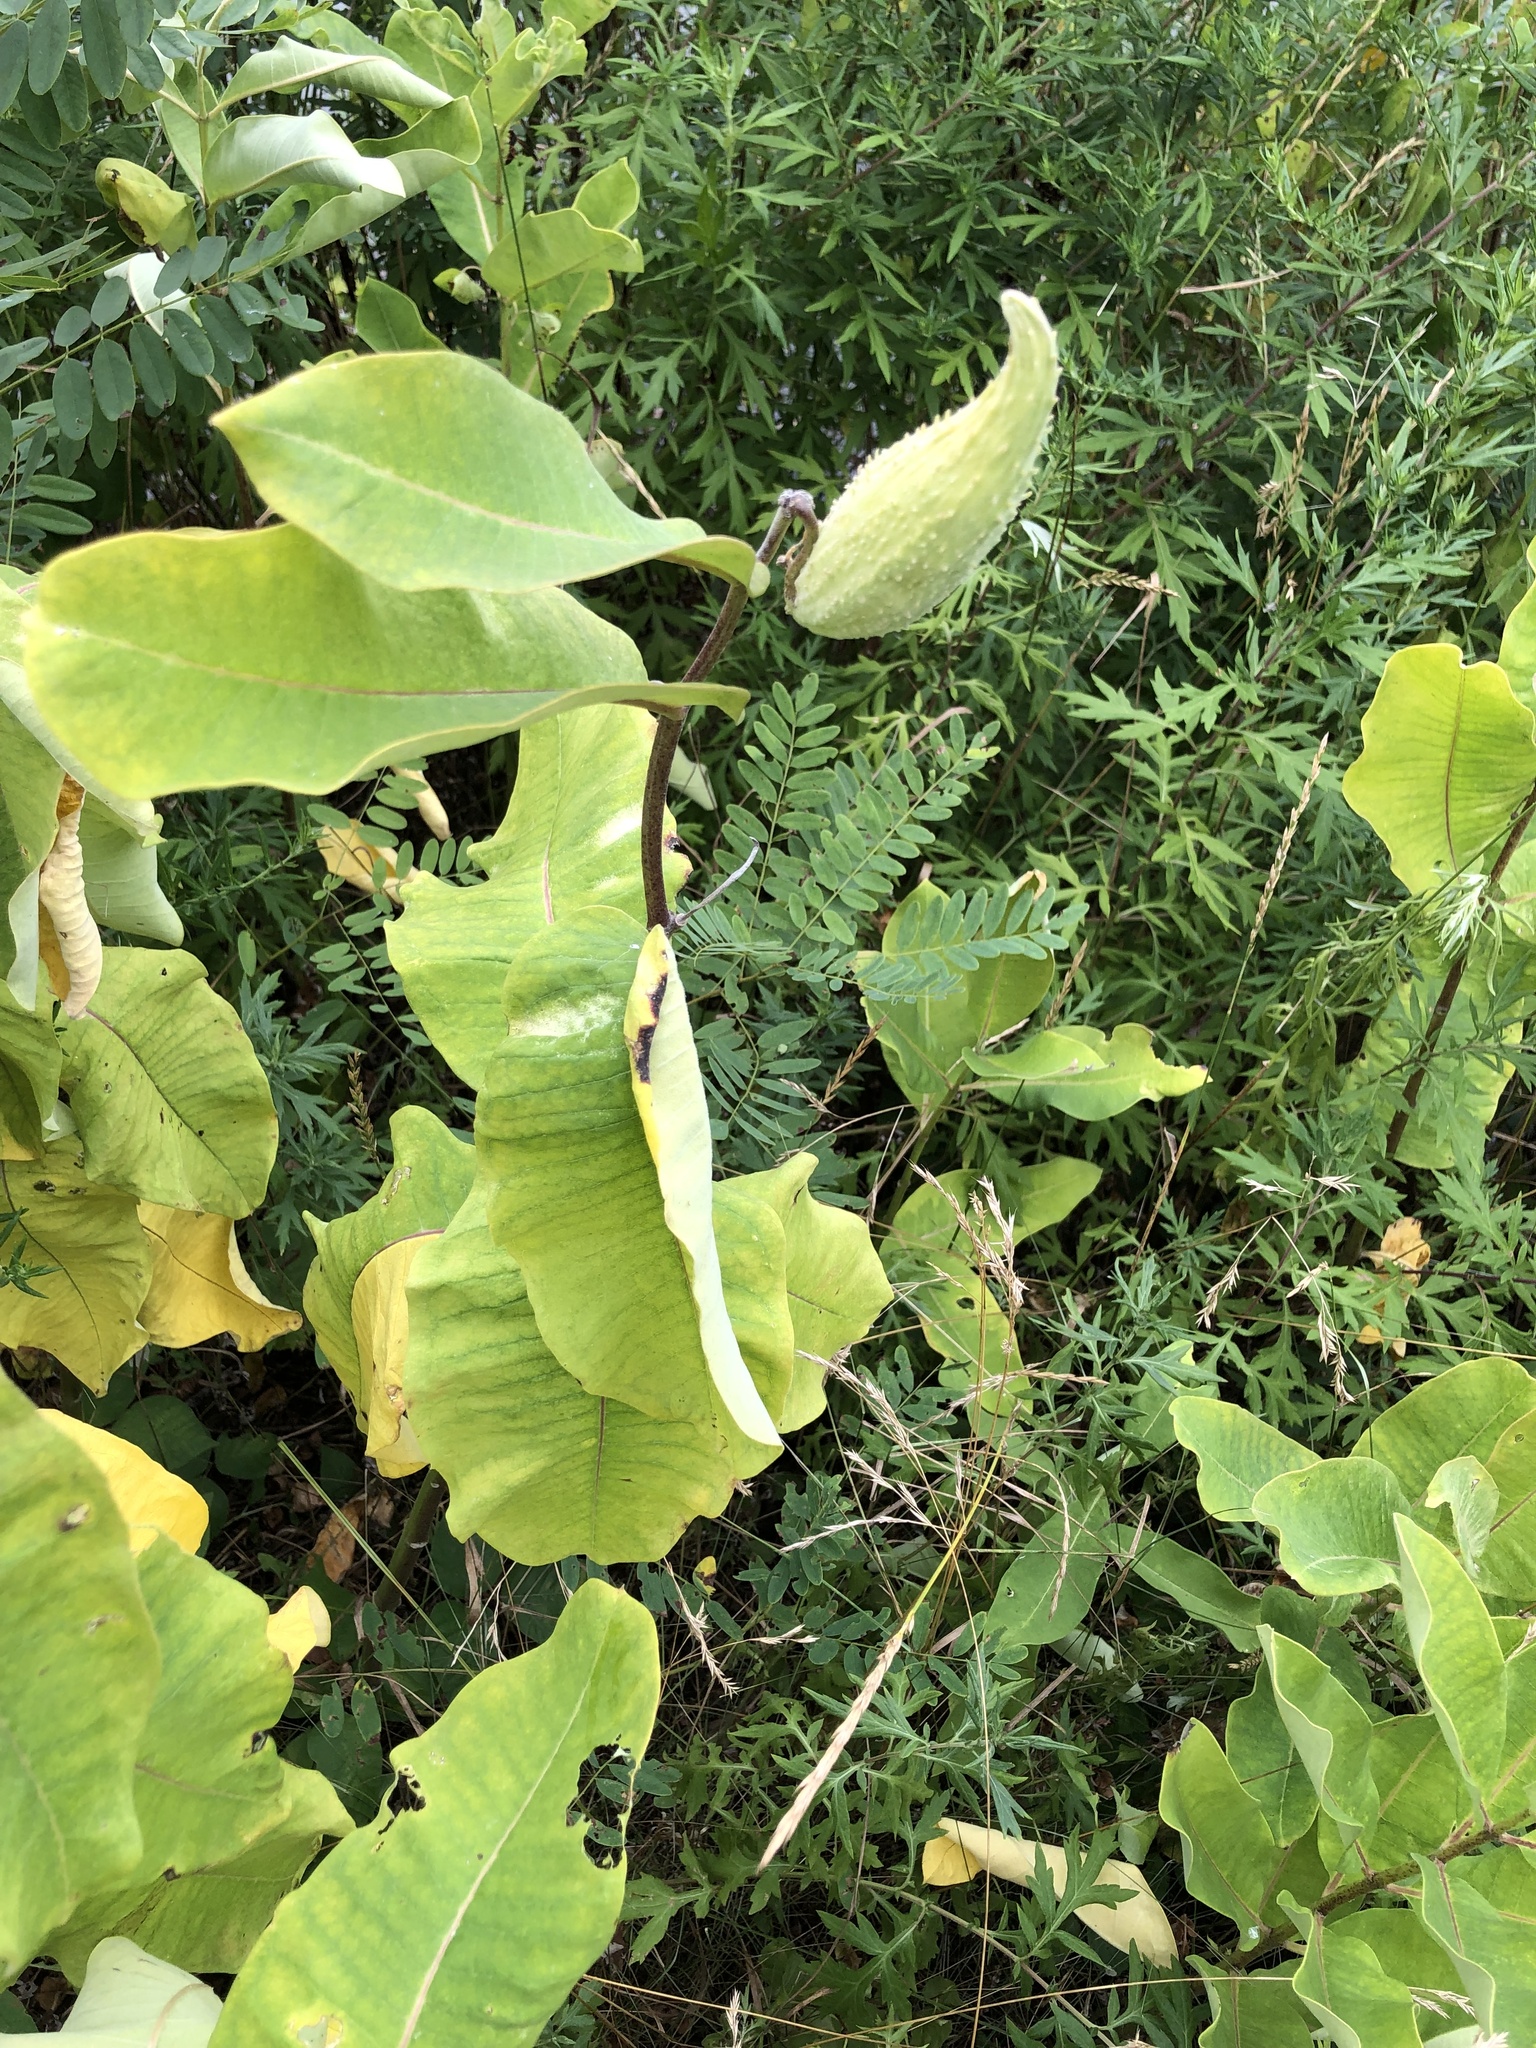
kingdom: Plantae
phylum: Tracheophyta
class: Magnoliopsida
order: Gentianales
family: Apocynaceae
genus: Asclepias
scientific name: Asclepias syriaca
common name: Common milkweed
